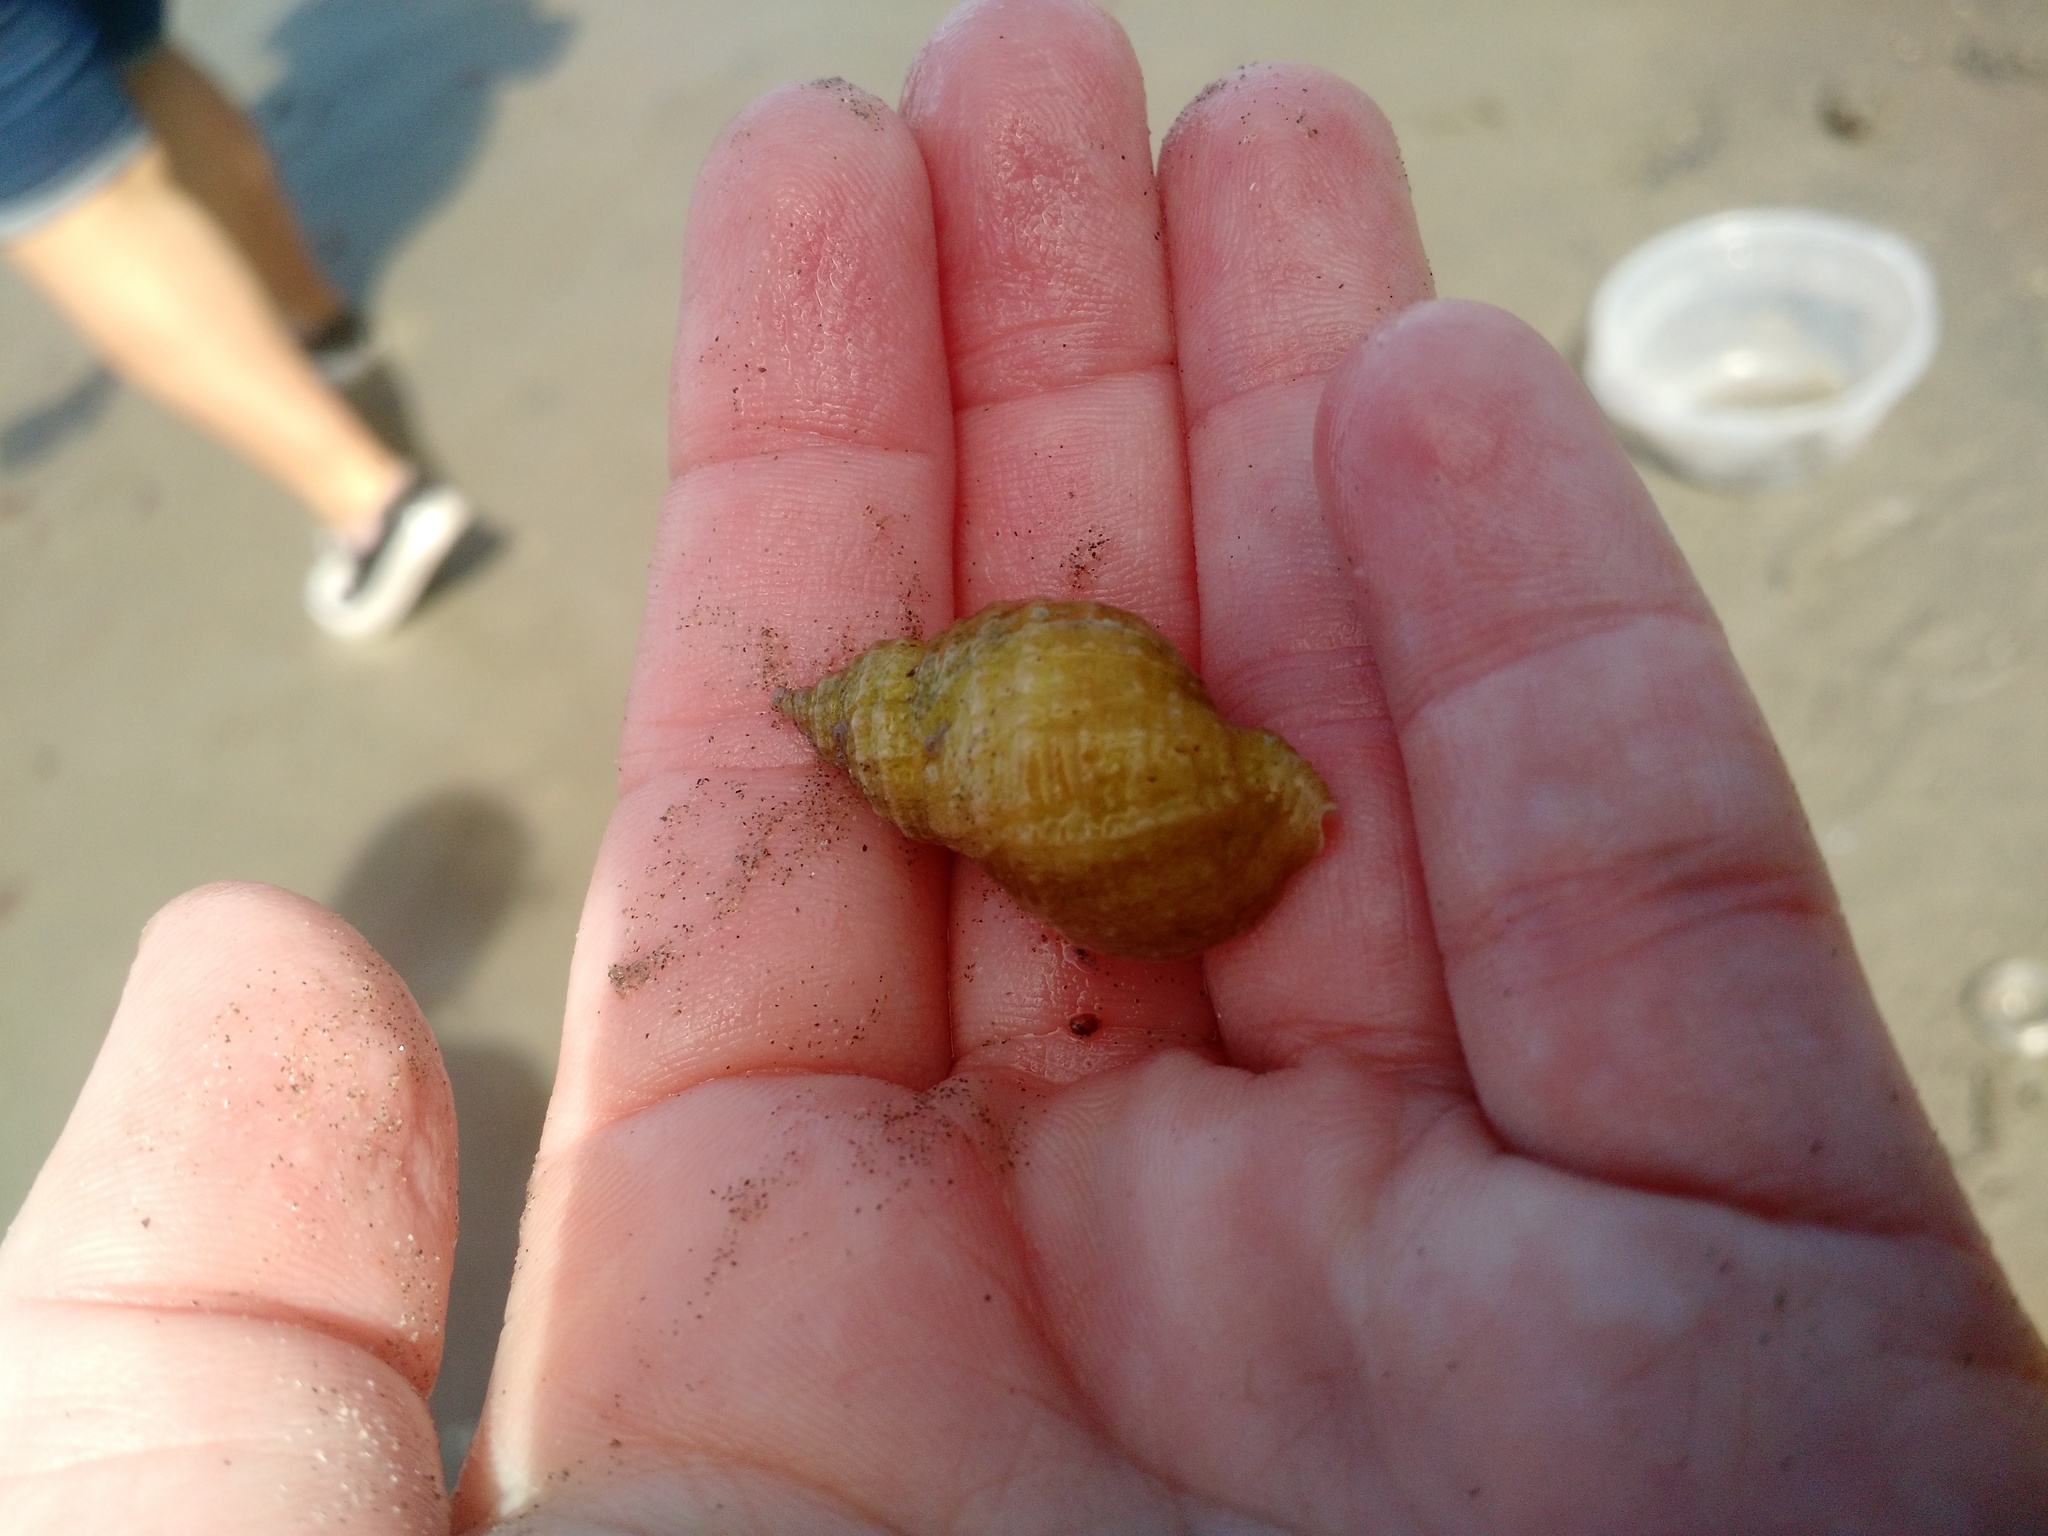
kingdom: Animalia
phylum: Mollusca
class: Gastropoda
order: Neogastropoda
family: Muricidae
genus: Nucella
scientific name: Nucella lapillus
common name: Dog whelk
